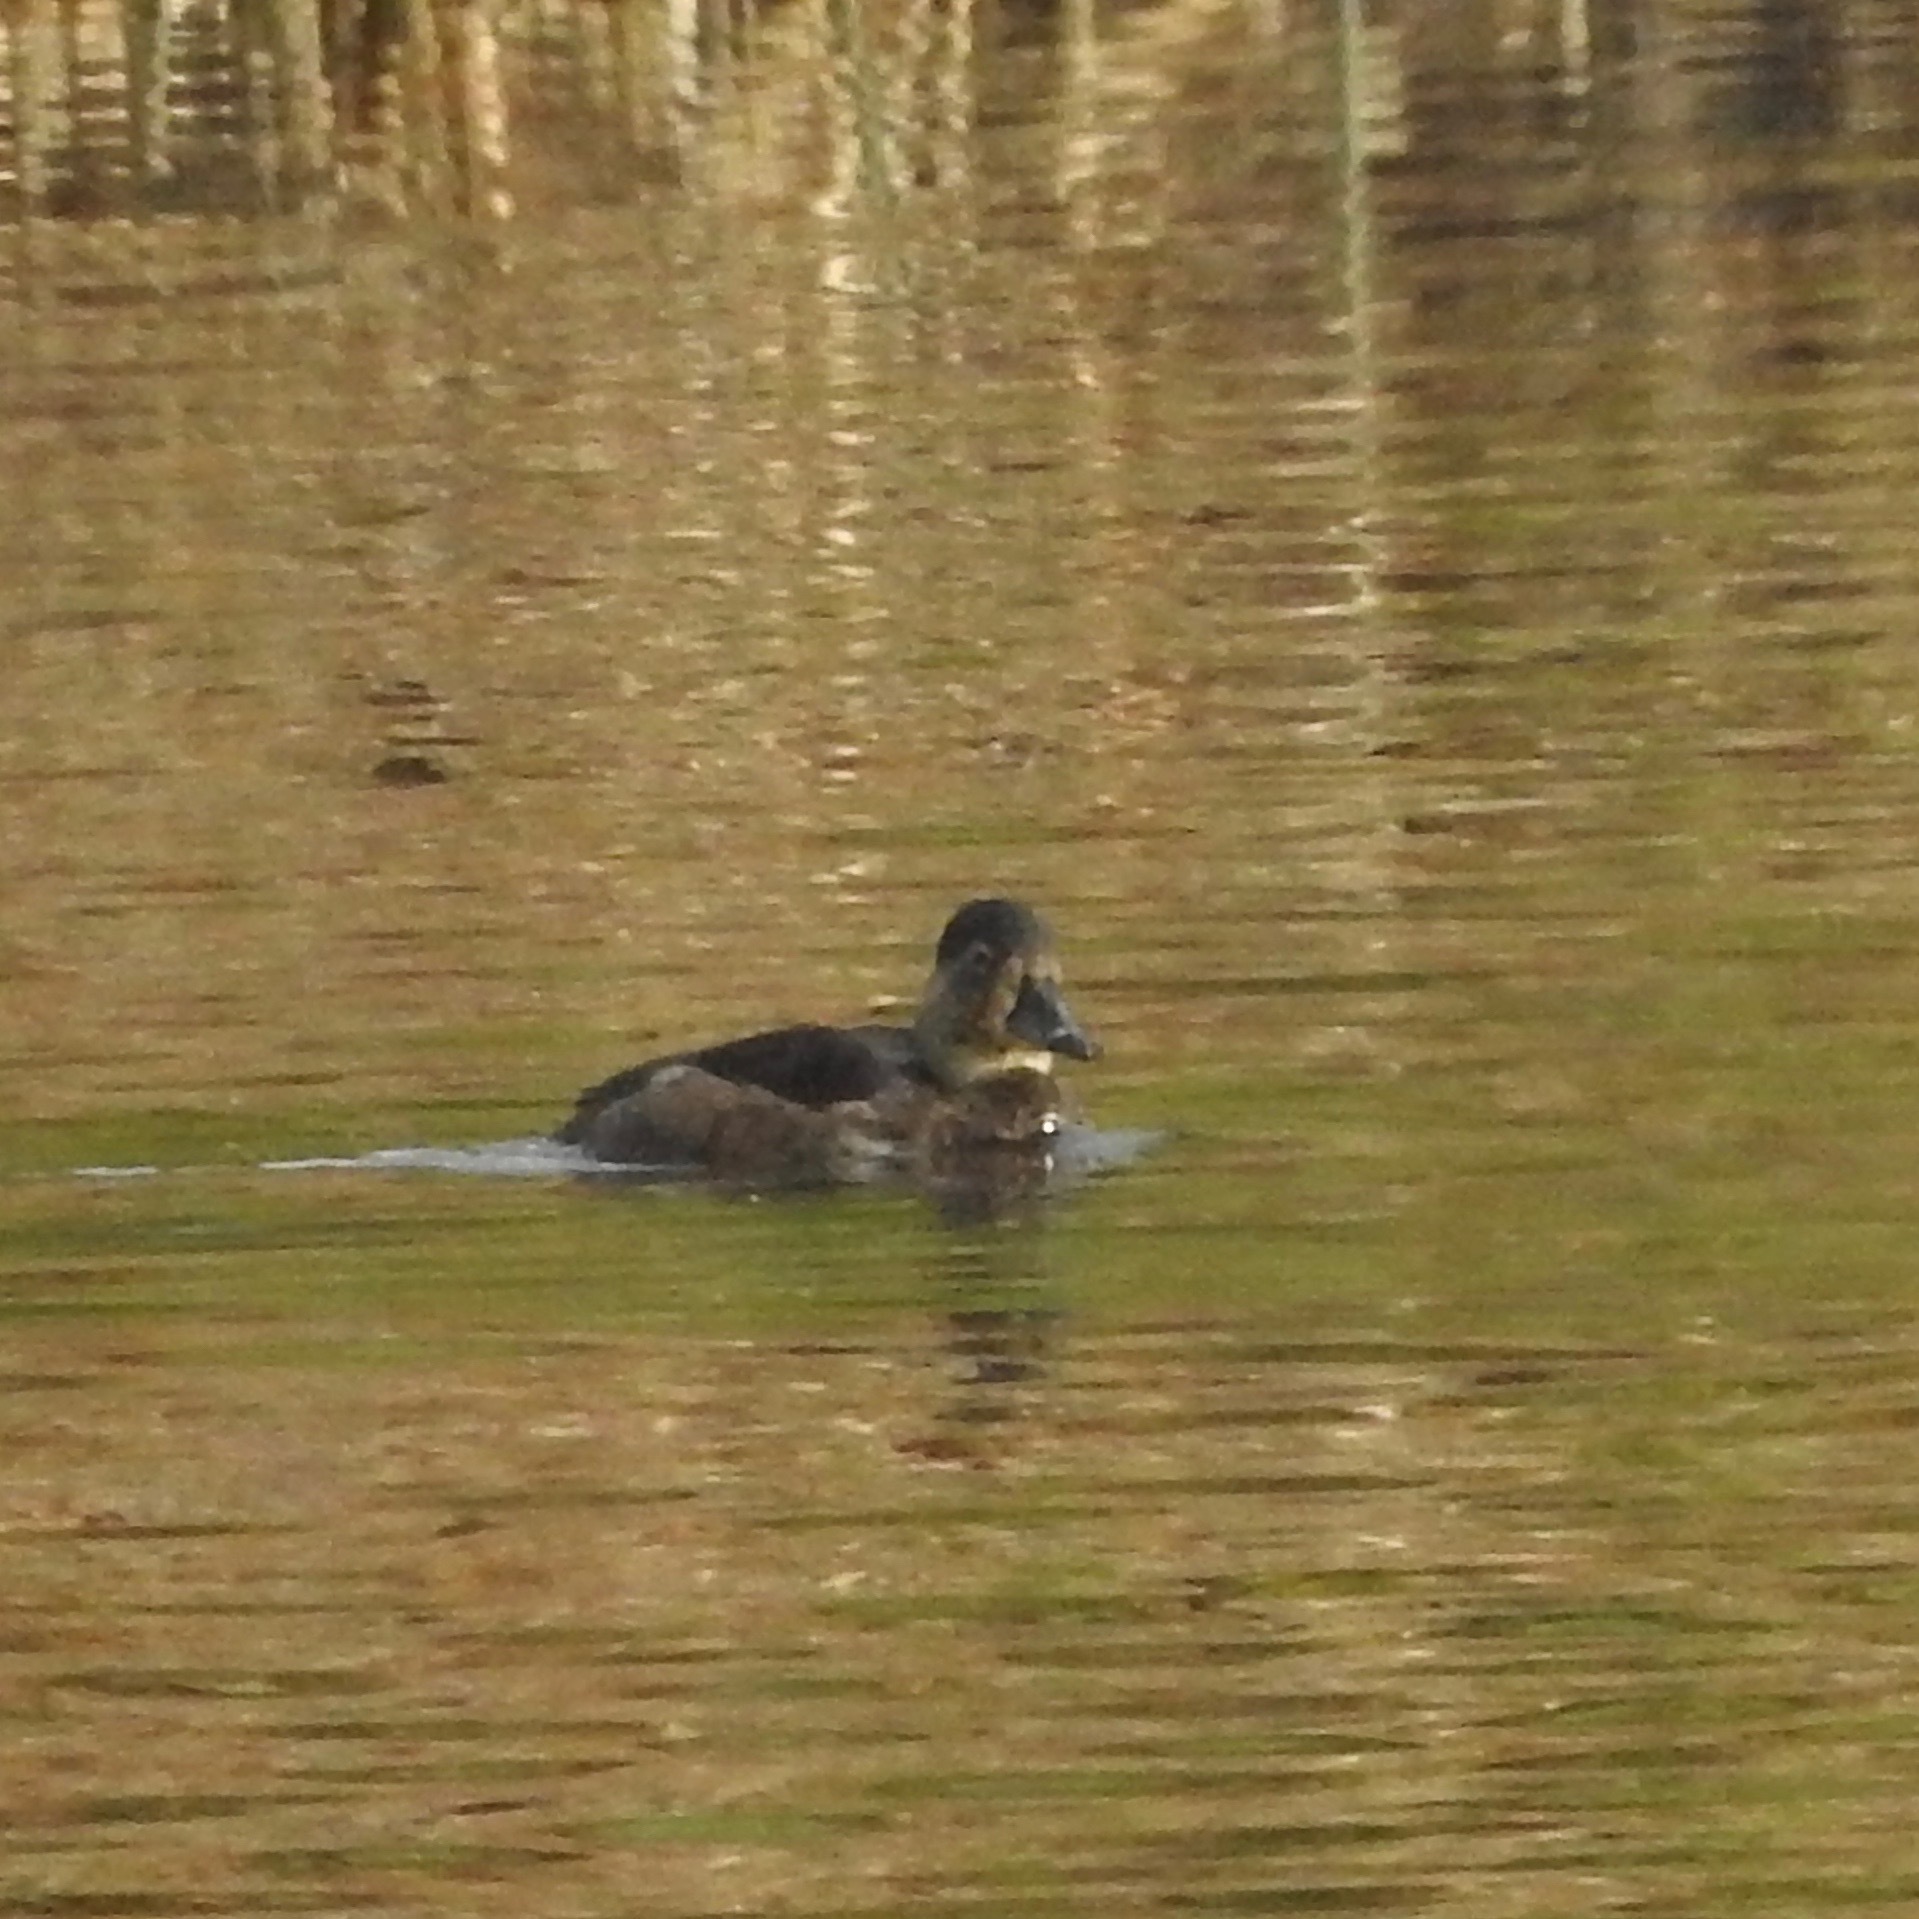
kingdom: Animalia
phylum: Chordata
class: Aves
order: Anseriformes
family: Anatidae
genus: Aythya
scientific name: Aythya collaris
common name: Ring-necked duck
